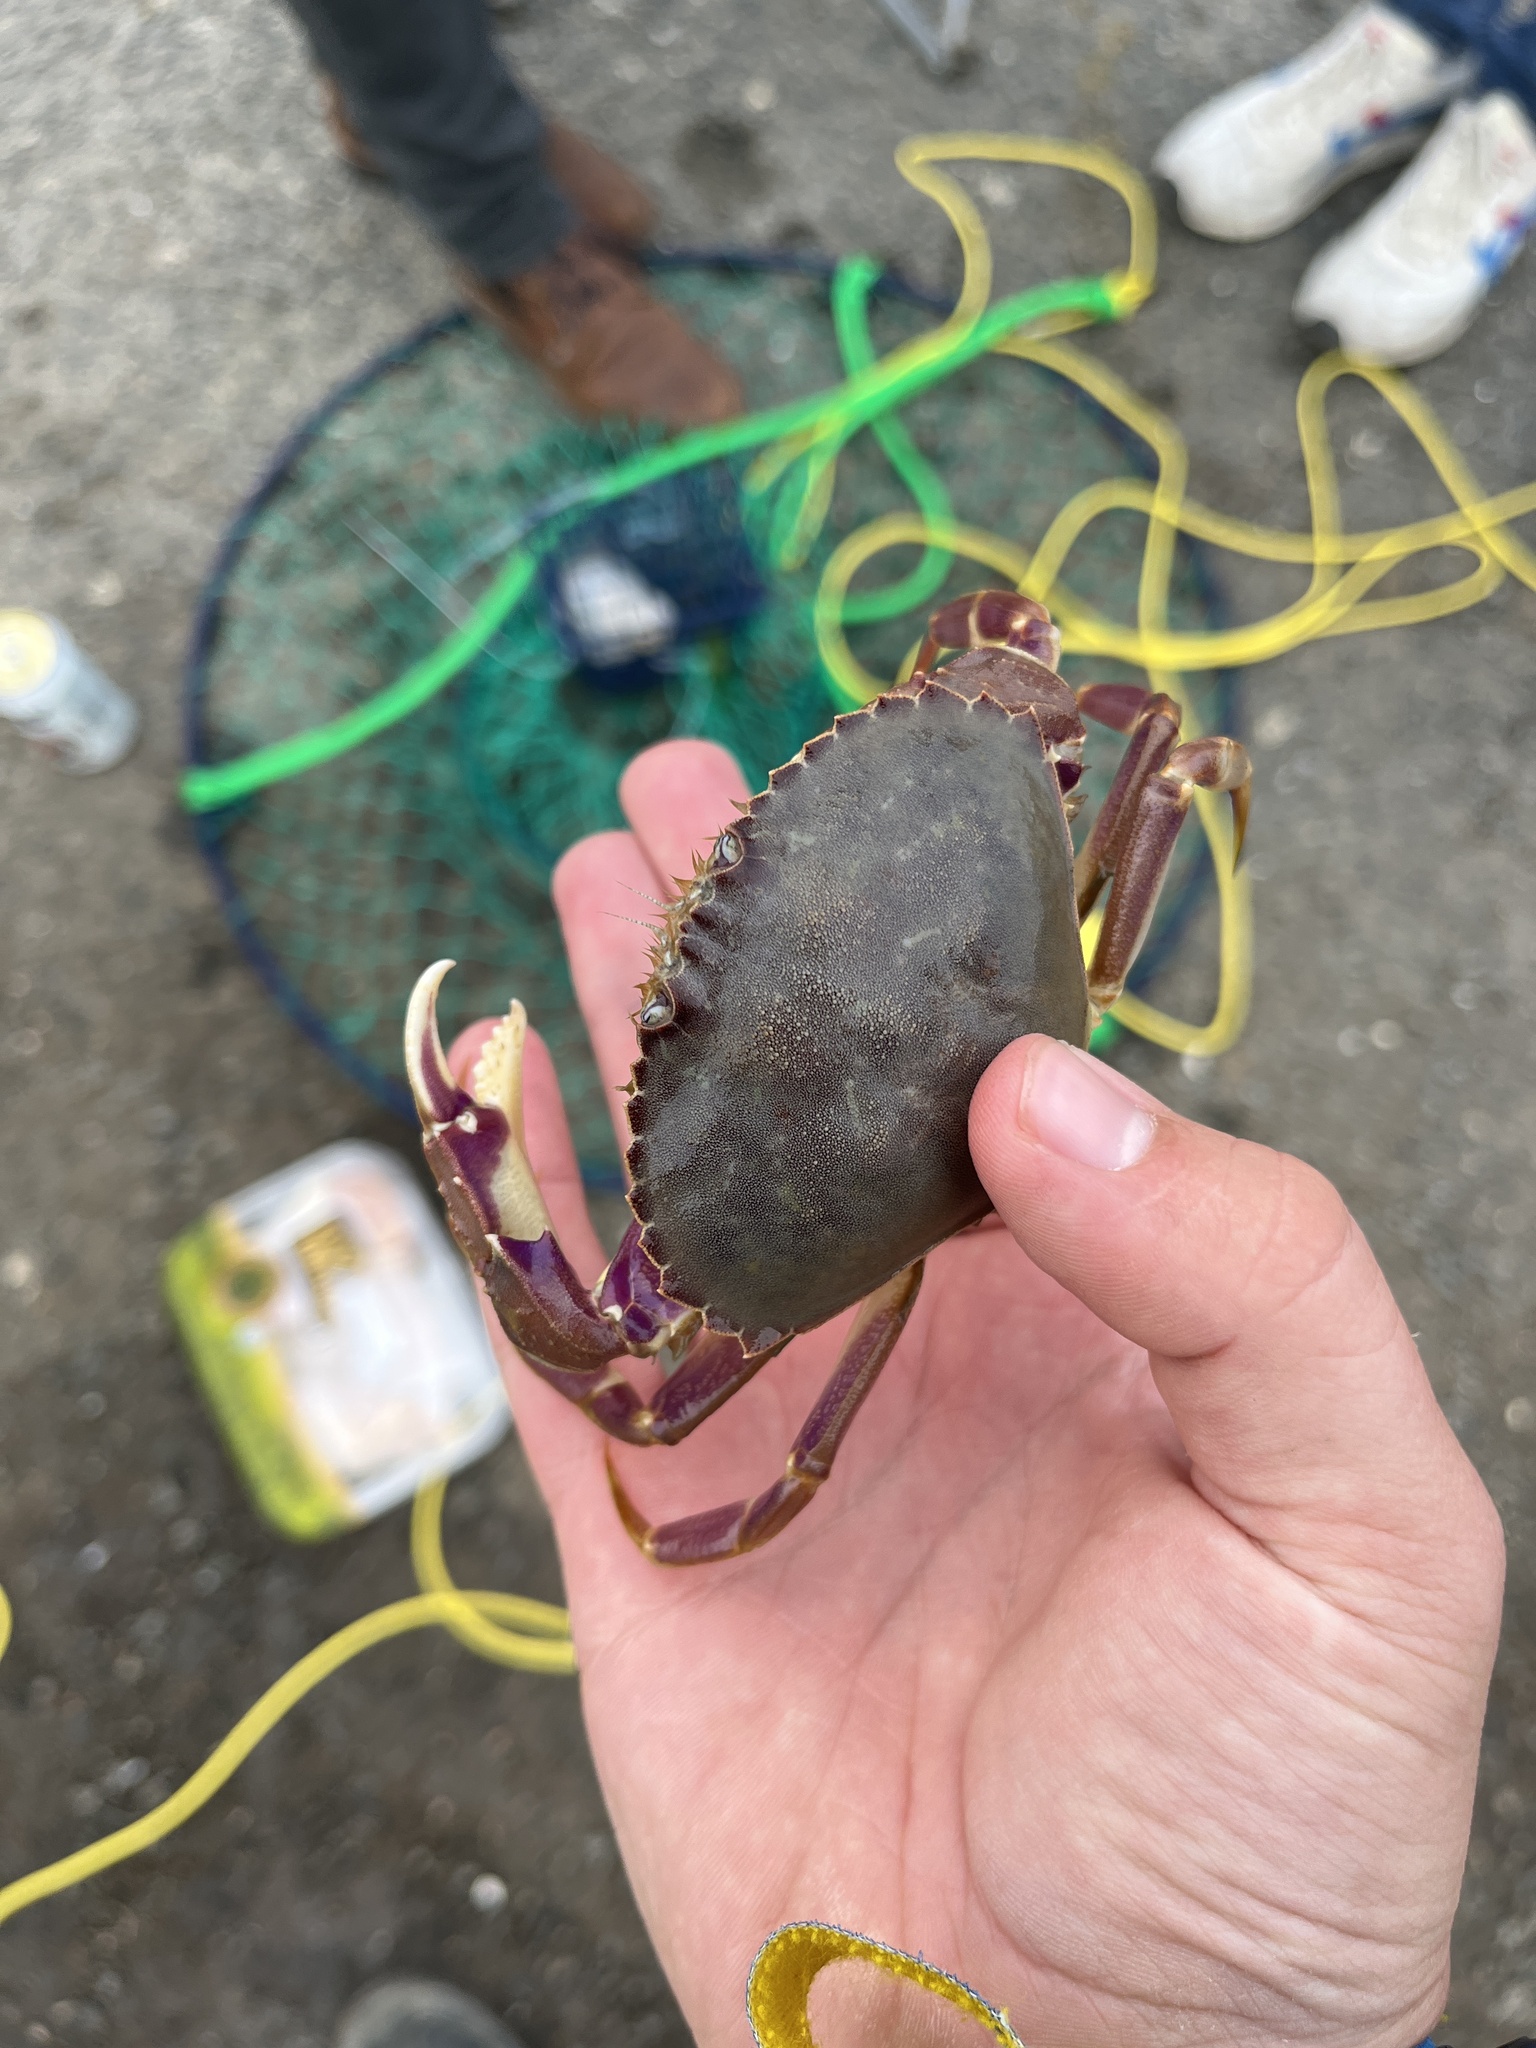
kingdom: Animalia
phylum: Arthropoda
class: Malacostraca
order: Decapoda
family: Cancridae
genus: Metacarcinus
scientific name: Metacarcinus gracilis
